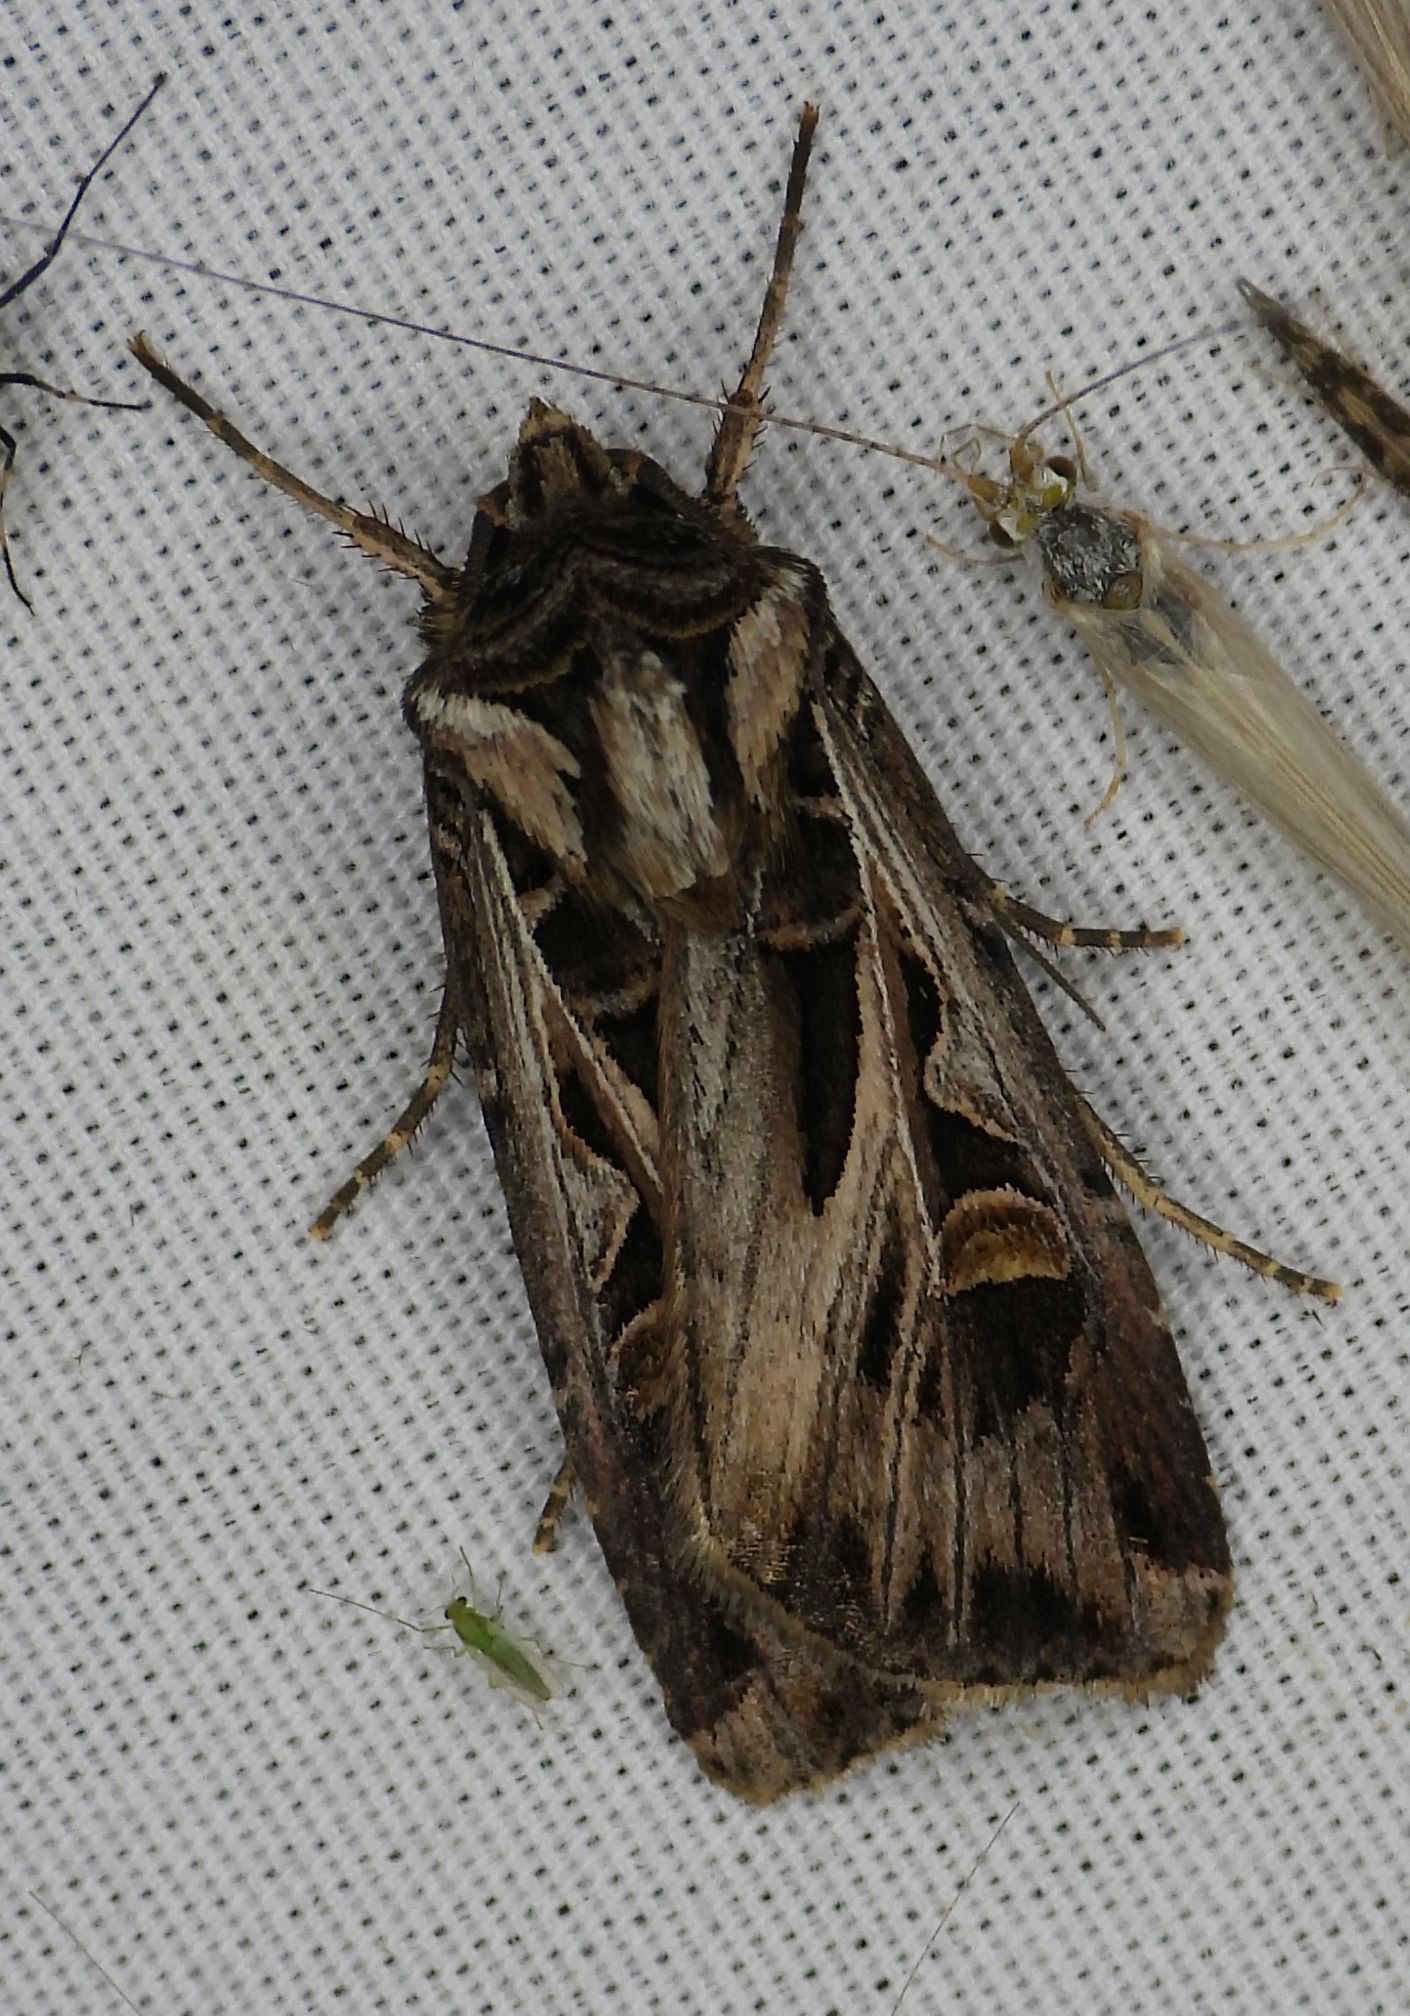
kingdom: Animalia
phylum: Arthropoda
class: Insecta
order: Lepidoptera
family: Noctuidae
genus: Feltia
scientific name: Feltia jaculifera
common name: Dingy cutworm moth
